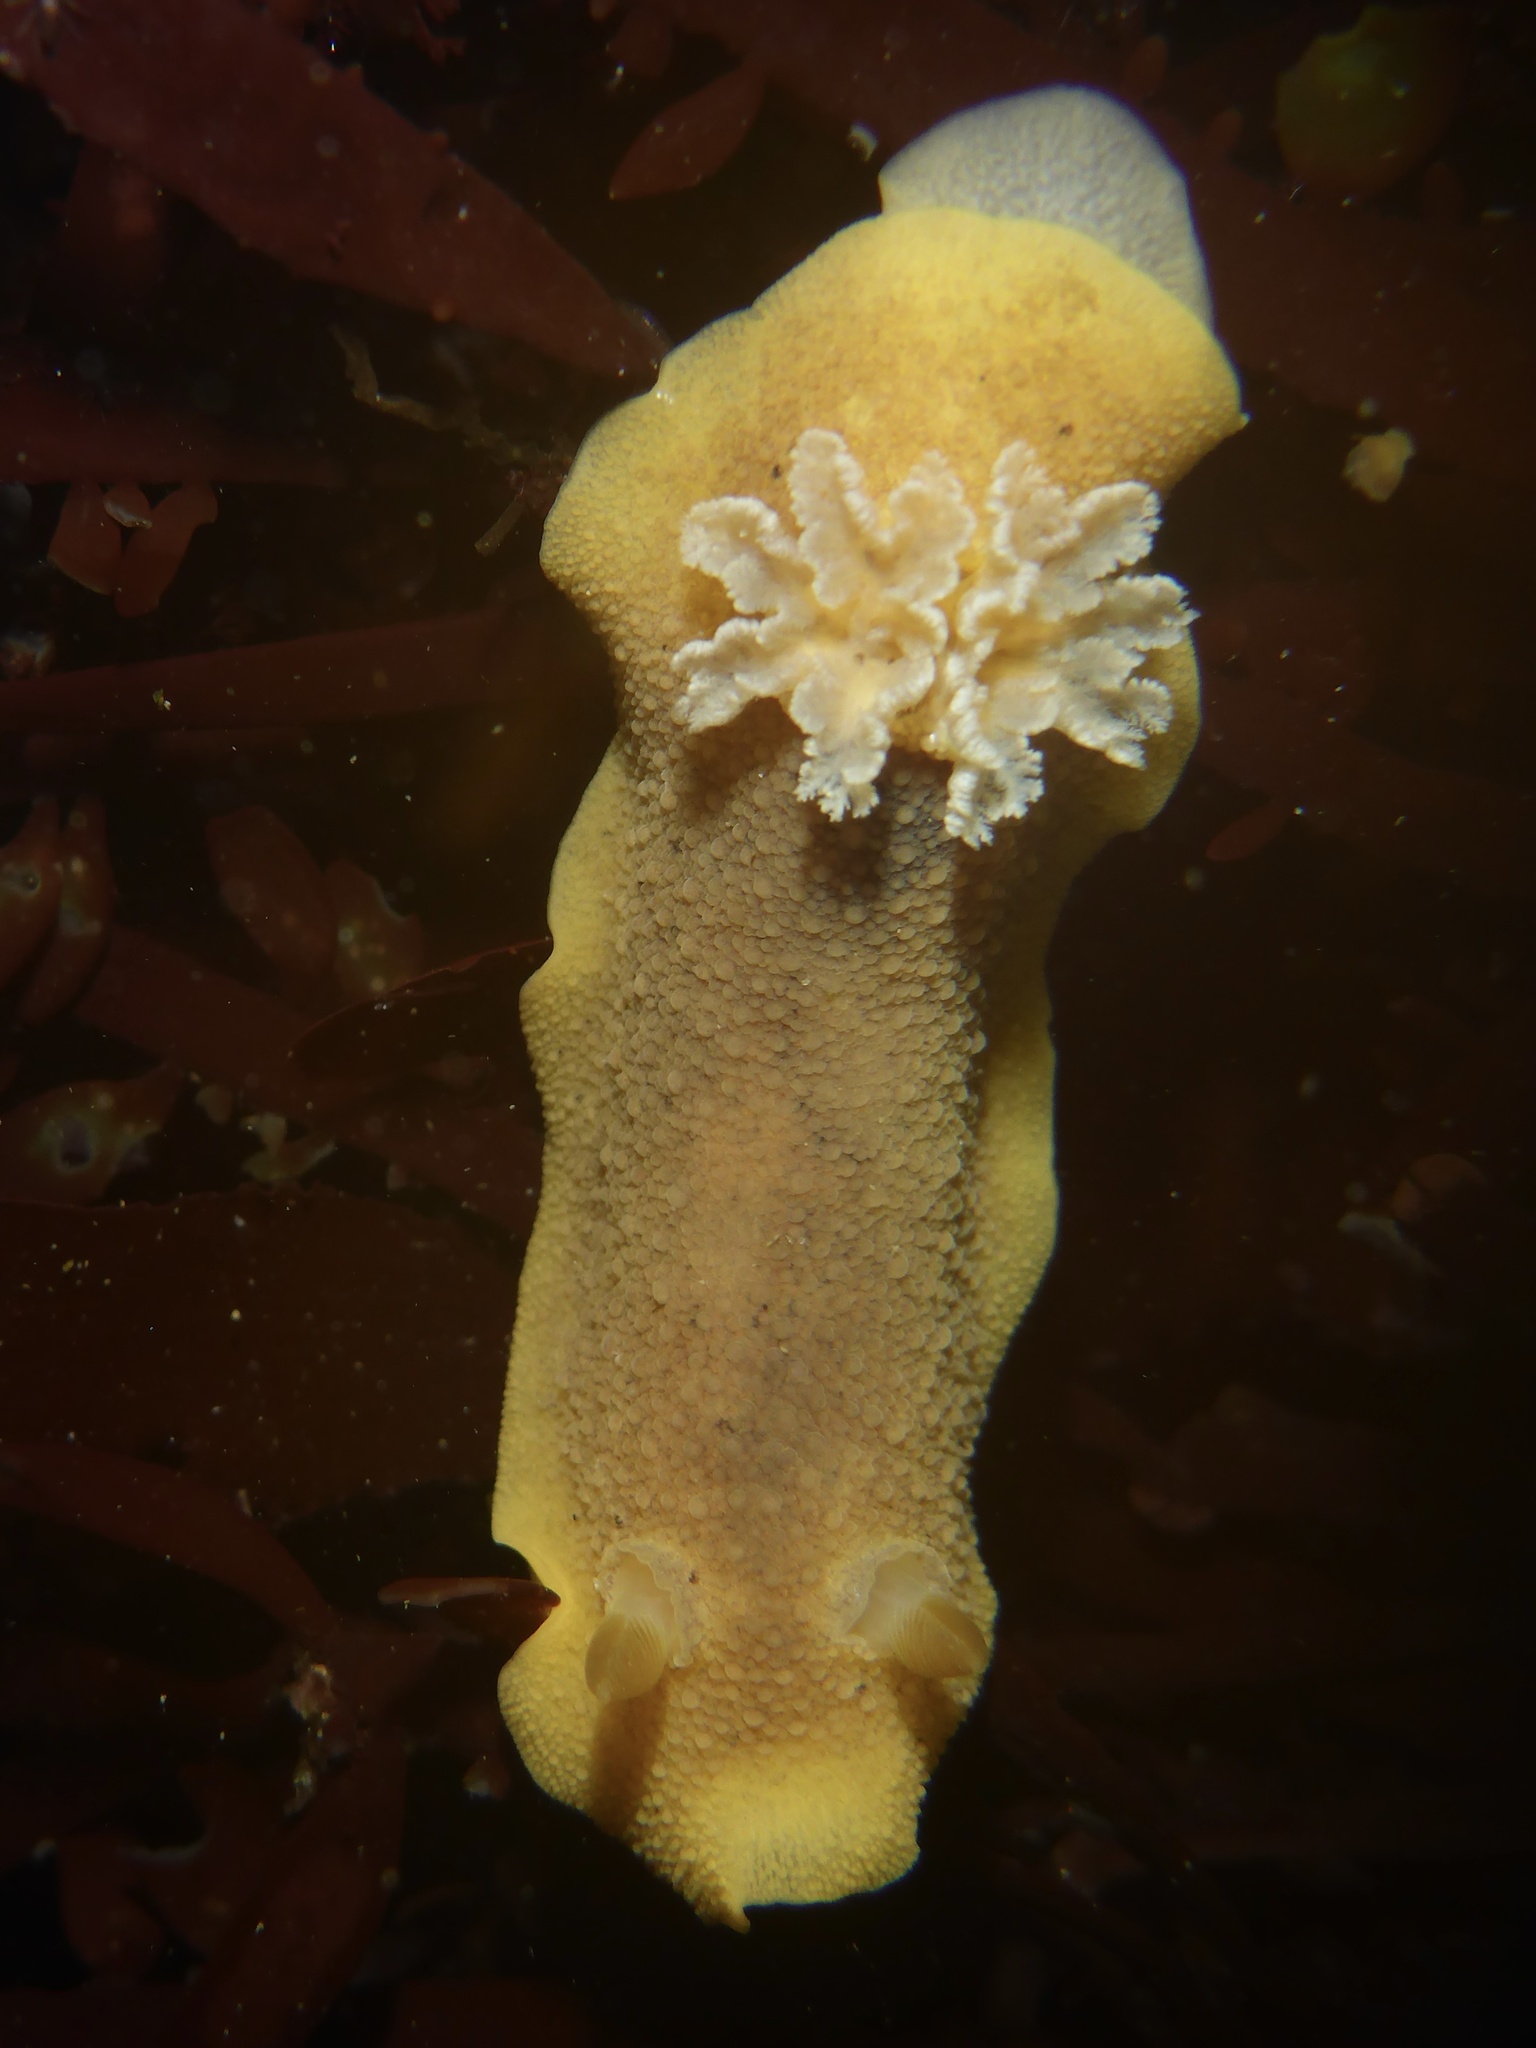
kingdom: Animalia
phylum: Mollusca
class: Gastropoda
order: Nudibranchia
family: Discodorididae
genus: Geitodoris
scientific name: Geitodoris heathi
